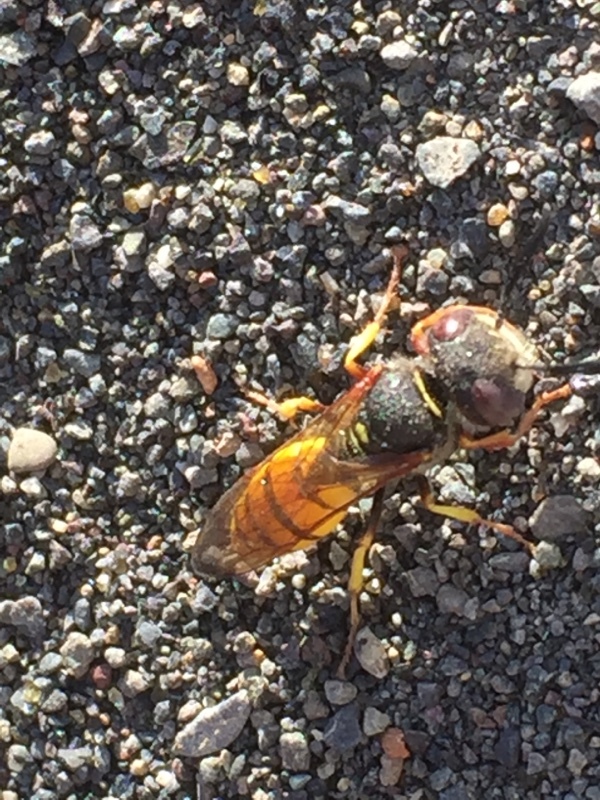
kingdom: Animalia
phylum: Arthropoda
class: Insecta
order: Hymenoptera
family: Crabronidae
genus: Philanthus
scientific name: Philanthus triangulum
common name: Bee wolf
